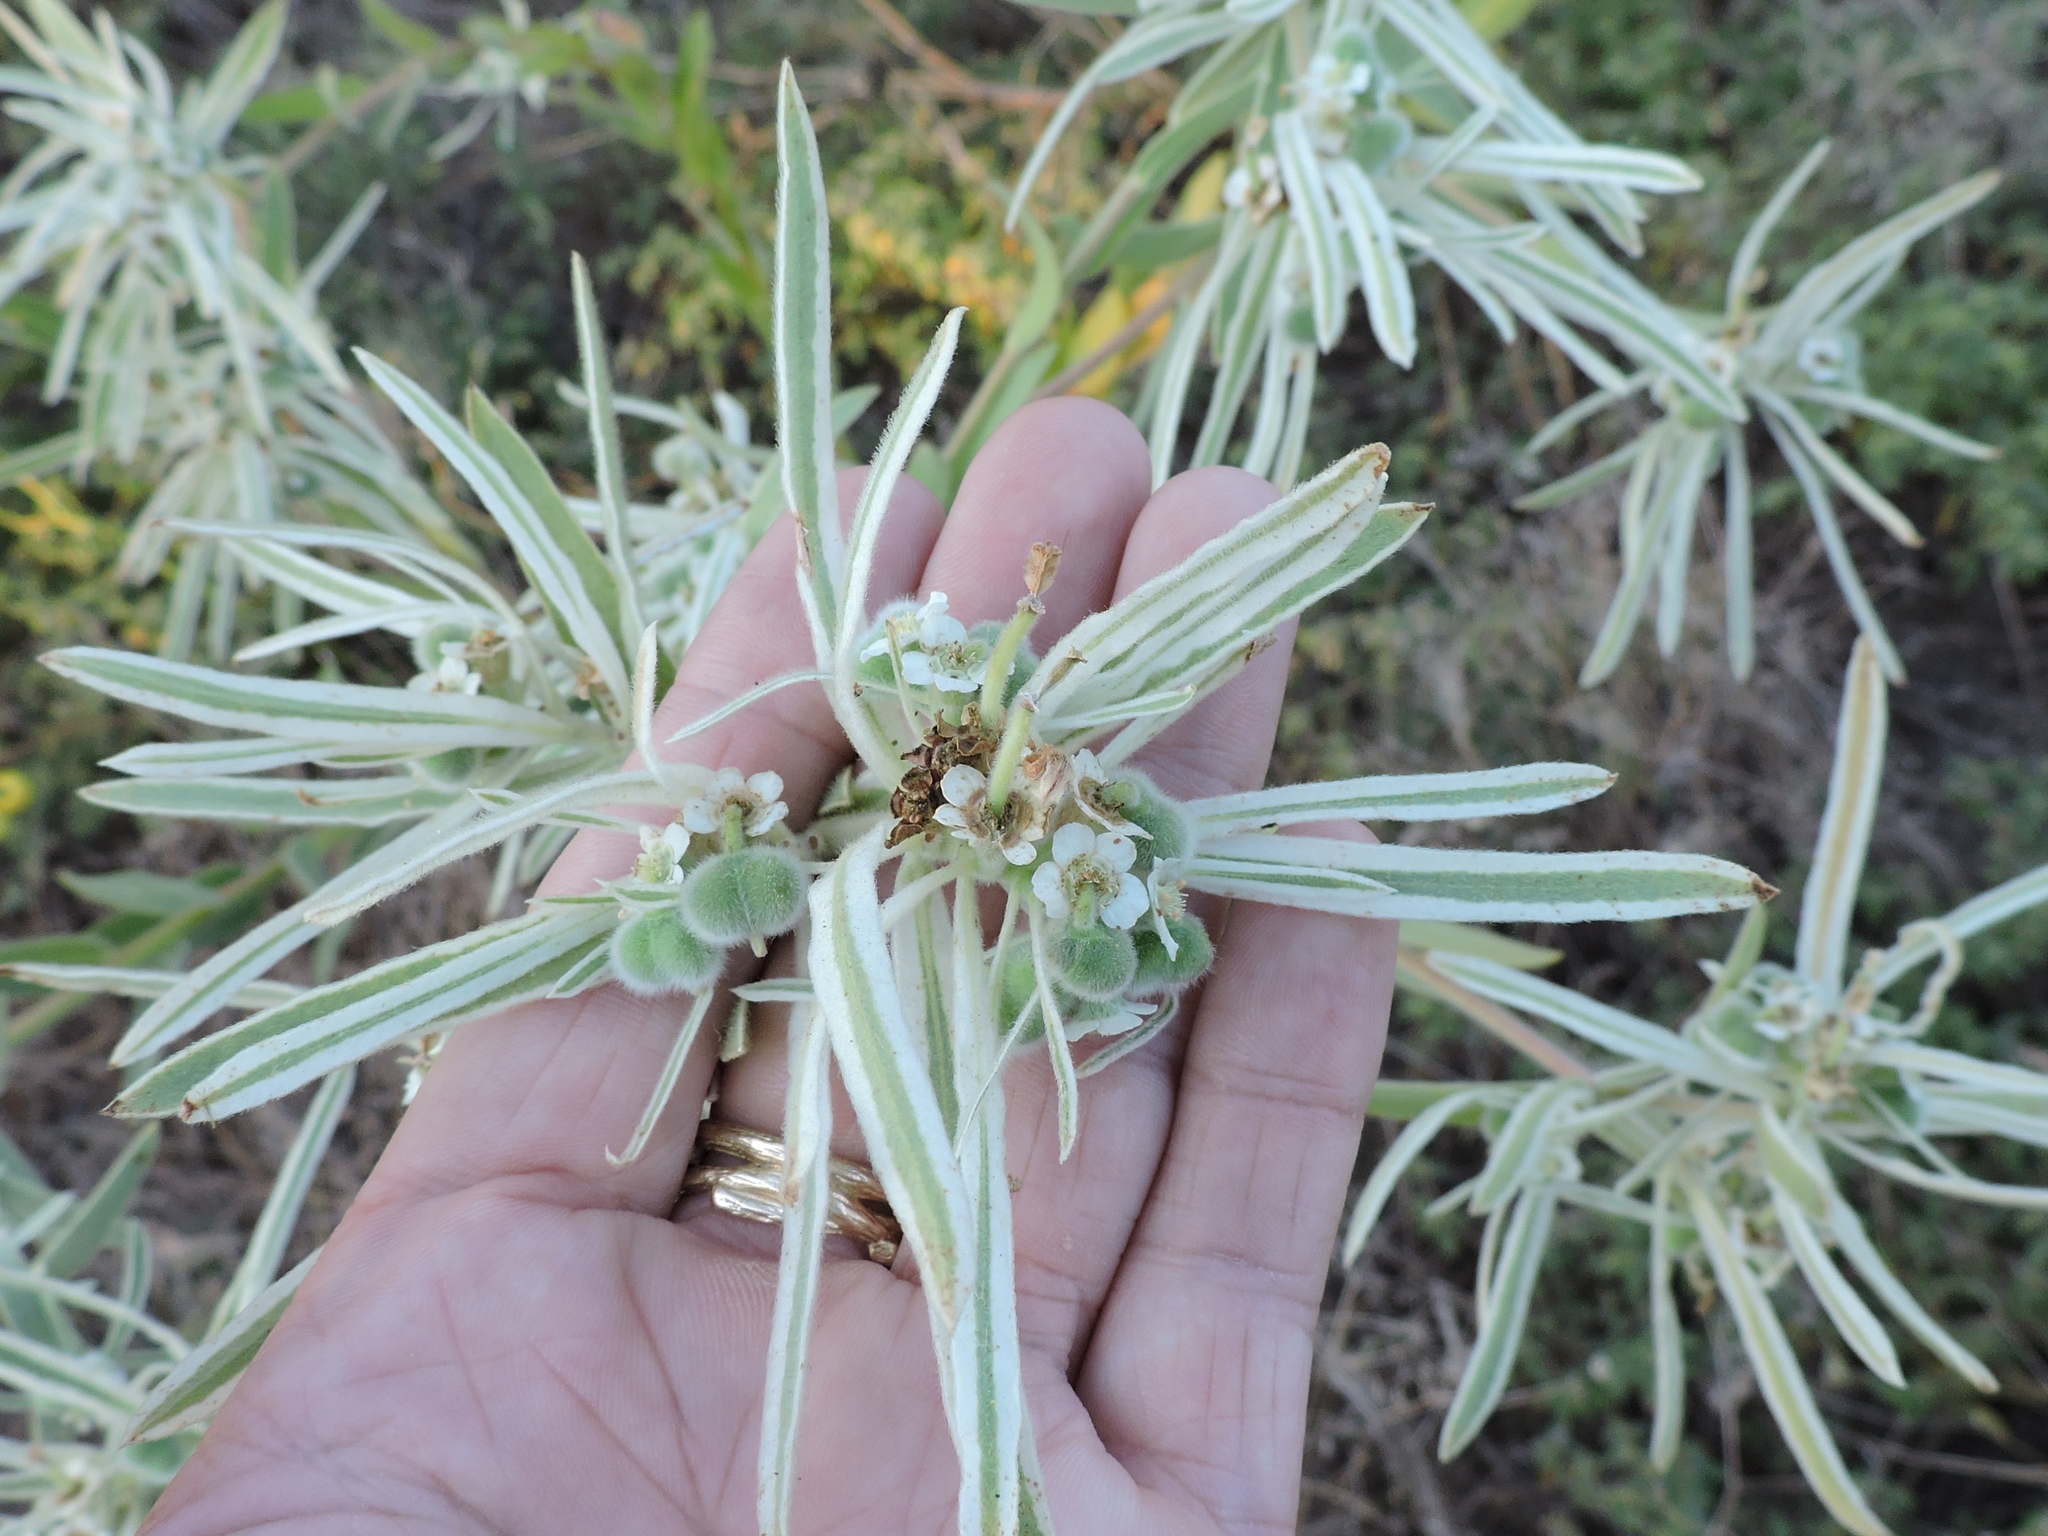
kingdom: Plantae
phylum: Tracheophyta
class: Magnoliopsida
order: Malpighiales
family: Euphorbiaceae
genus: Euphorbia
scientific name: Euphorbia bicolor
